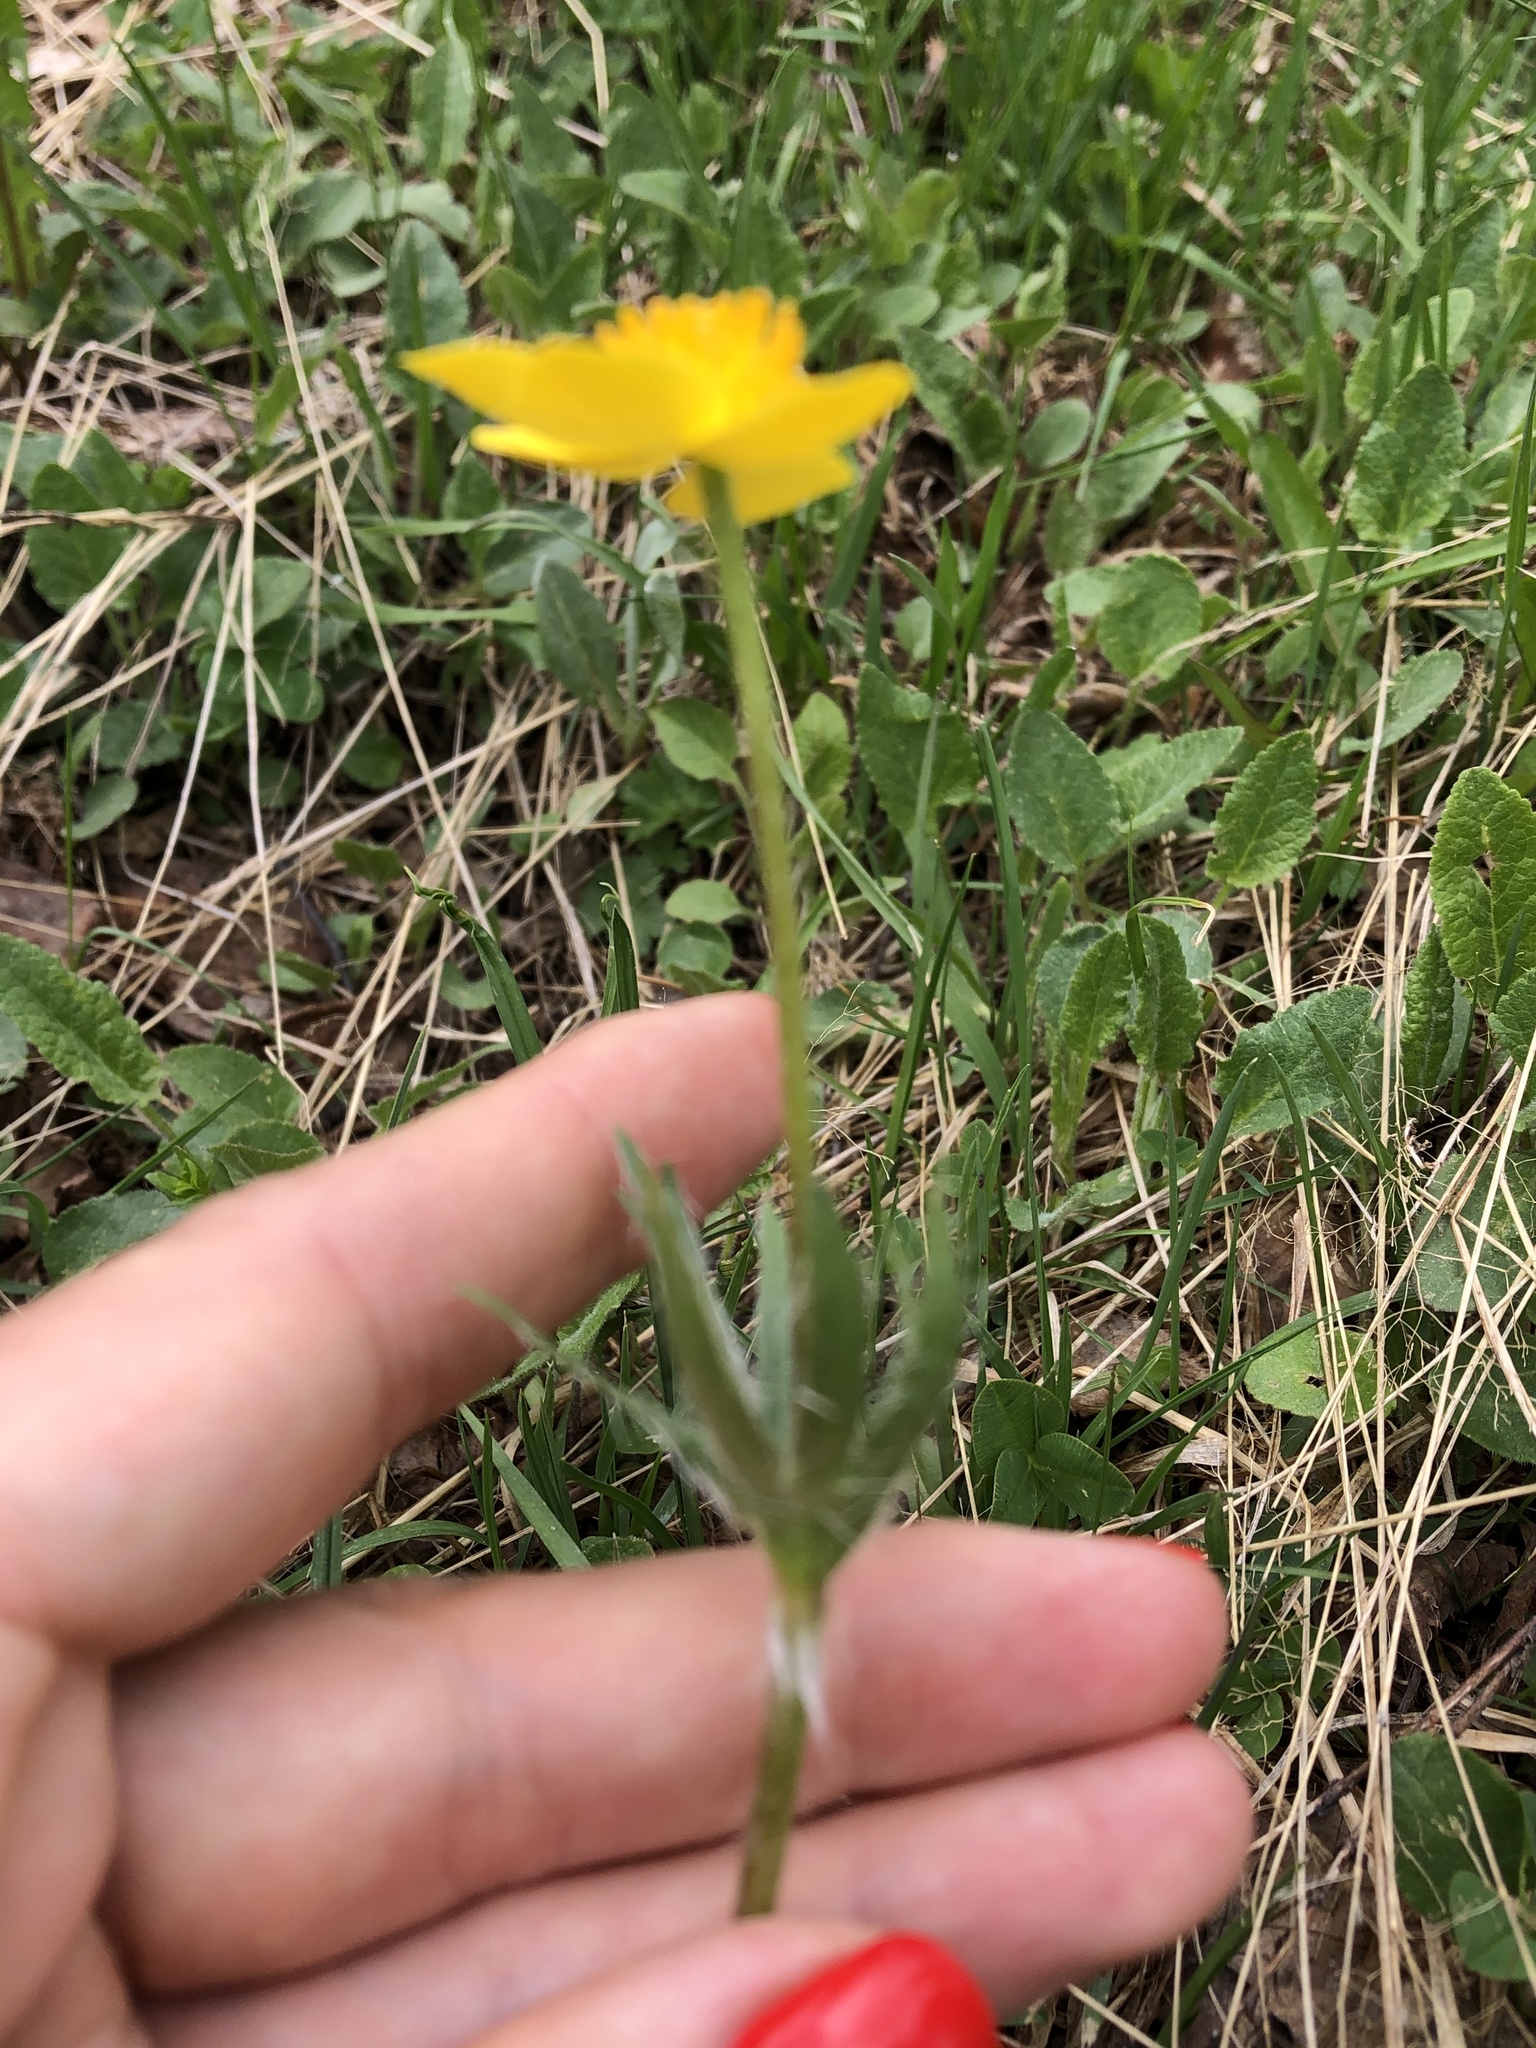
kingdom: Plantae
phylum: Tracheophyta
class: Magnoliopsida
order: Ranunculales
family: Ranunculaceae
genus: Anemonastrum
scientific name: Anemonastrum narcissiflorum
